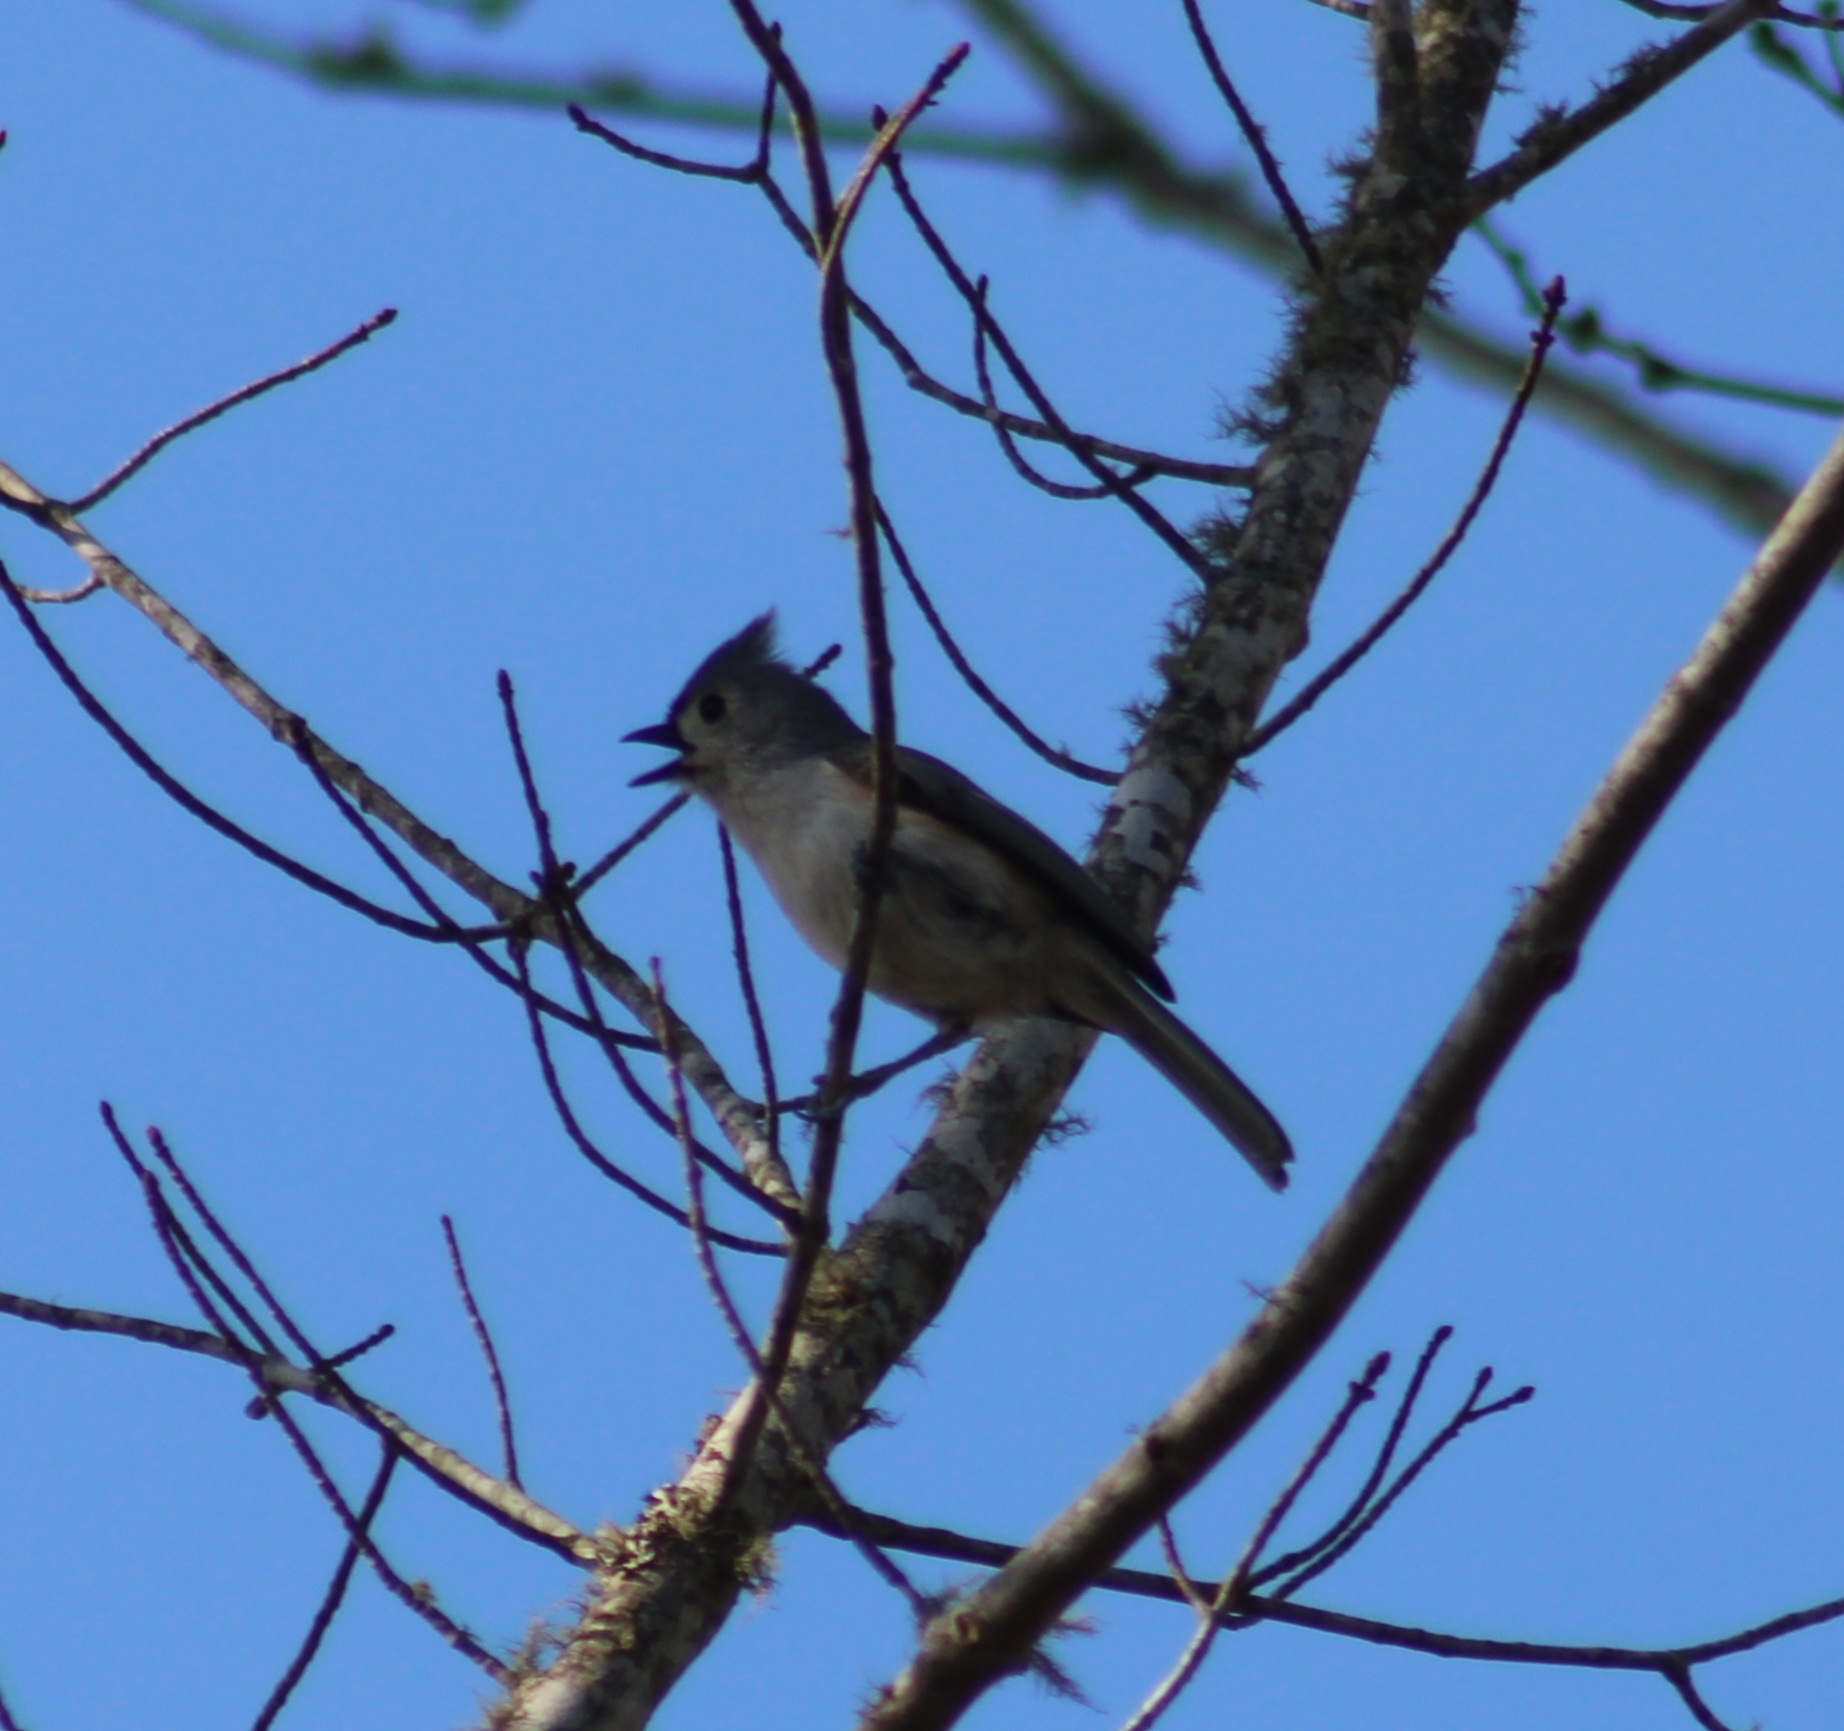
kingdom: Animalia
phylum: Chordata
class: Aves
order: Passeriformes
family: Paridae
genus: Baeolophus
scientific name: Baeolophus bicolor
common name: Tufted titmouse
